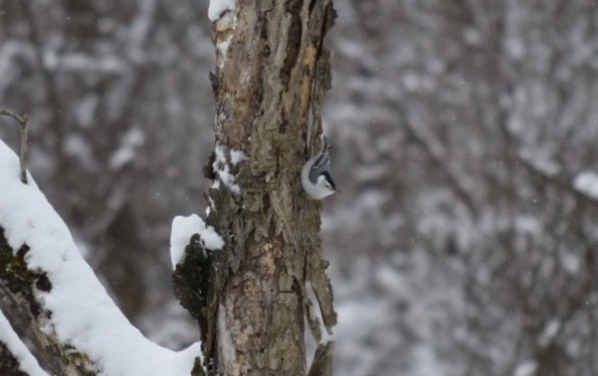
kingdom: Animalia
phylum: Chordata
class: Aves
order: Passeriformes
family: Sittidae
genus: Sitta
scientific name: Sitta carolinensis
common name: White-breasted nuthatch
